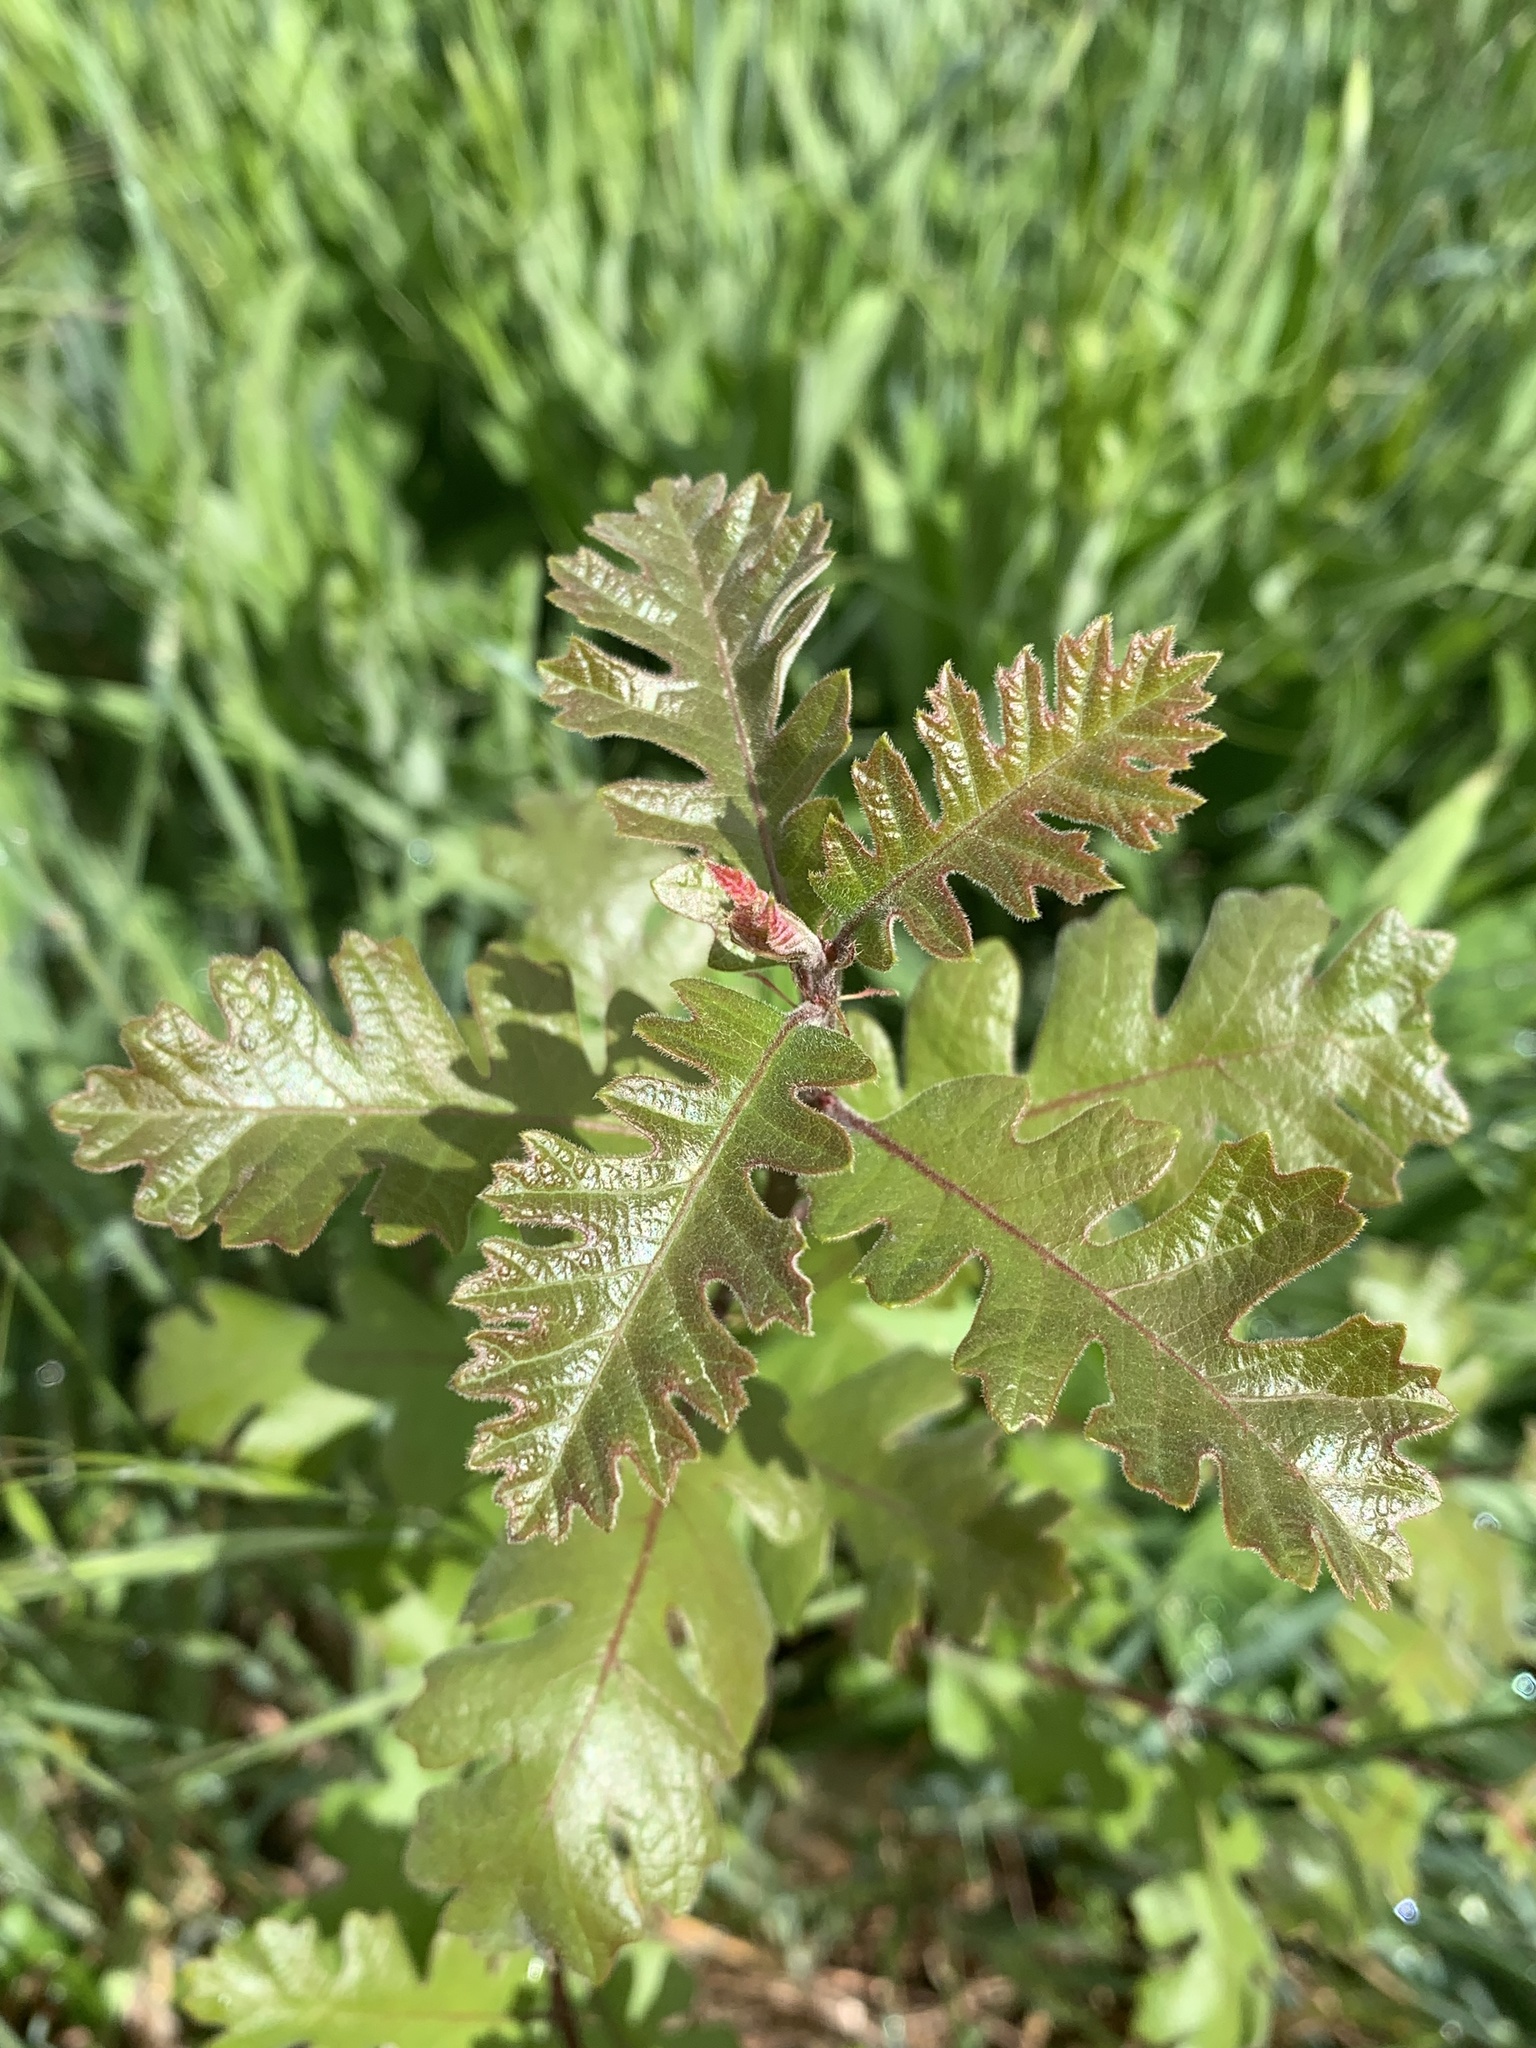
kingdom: Plantae
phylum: Tracheophyta
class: Magnoliopsida
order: Fagales
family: Fagaceae
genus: Quercus
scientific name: Quercus lobata
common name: Valley oak
